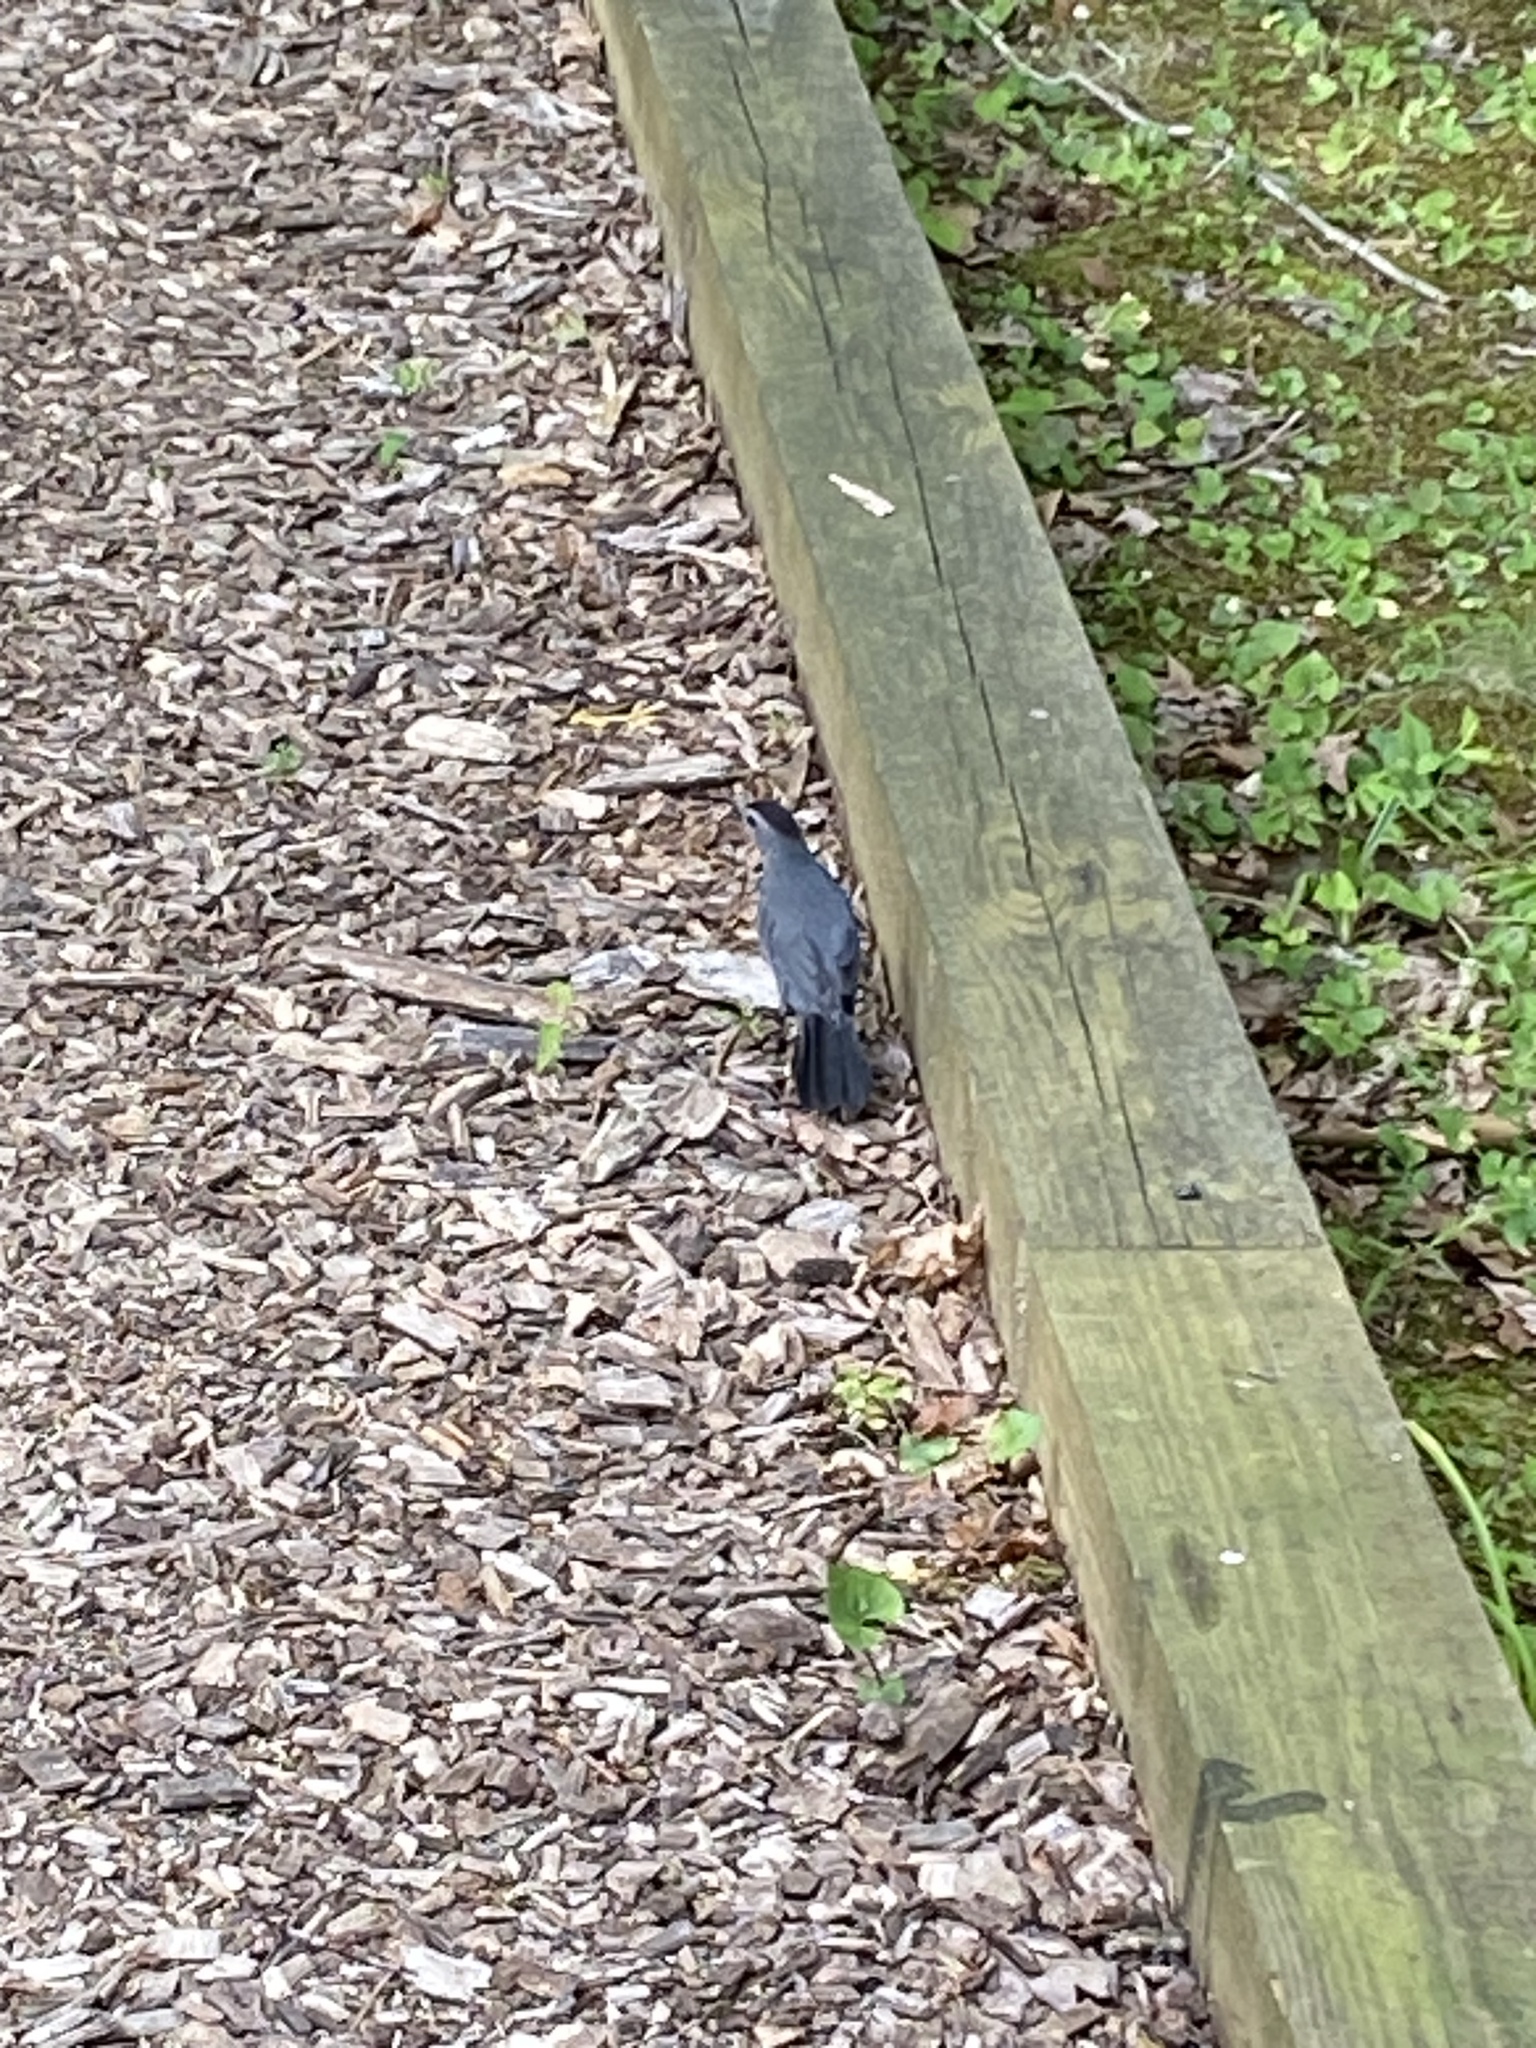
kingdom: Animalia
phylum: Chordata
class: Aves
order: Passeriformes
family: Mimidae
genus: Dumetella
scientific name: Dumetella carolinensis
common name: Gray catbird
